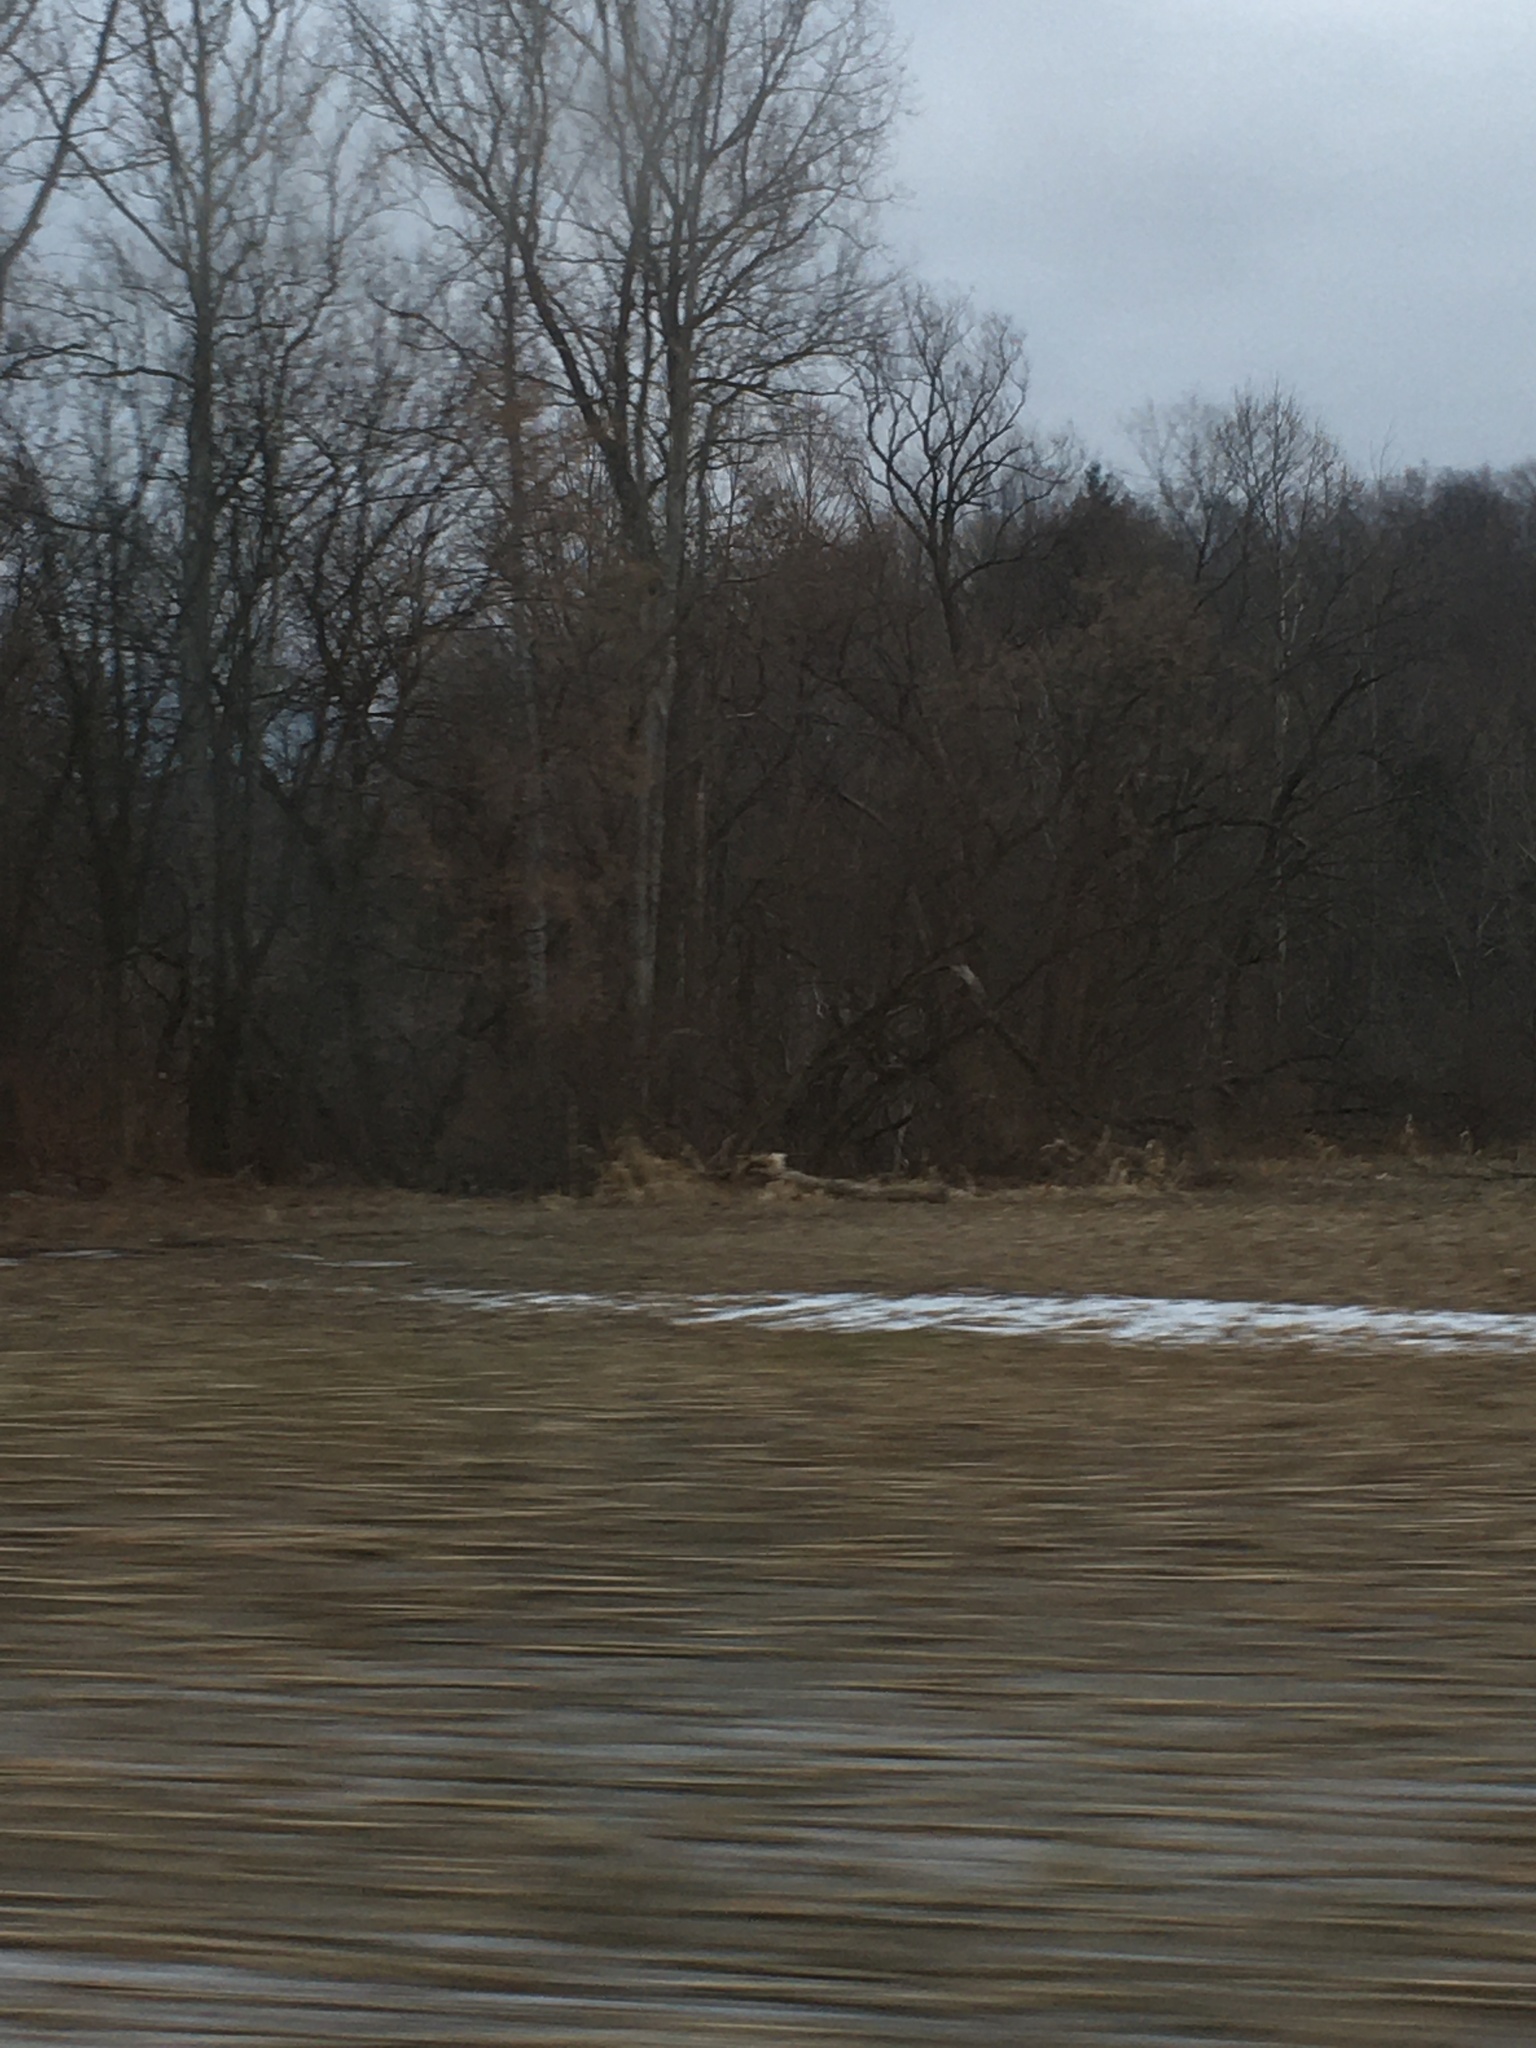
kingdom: Plantae
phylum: Tracheophyta
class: Magnoliopsida
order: Proteales
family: Platanaceae
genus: Platanus
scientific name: Platanus occidentalis
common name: American sycamore
